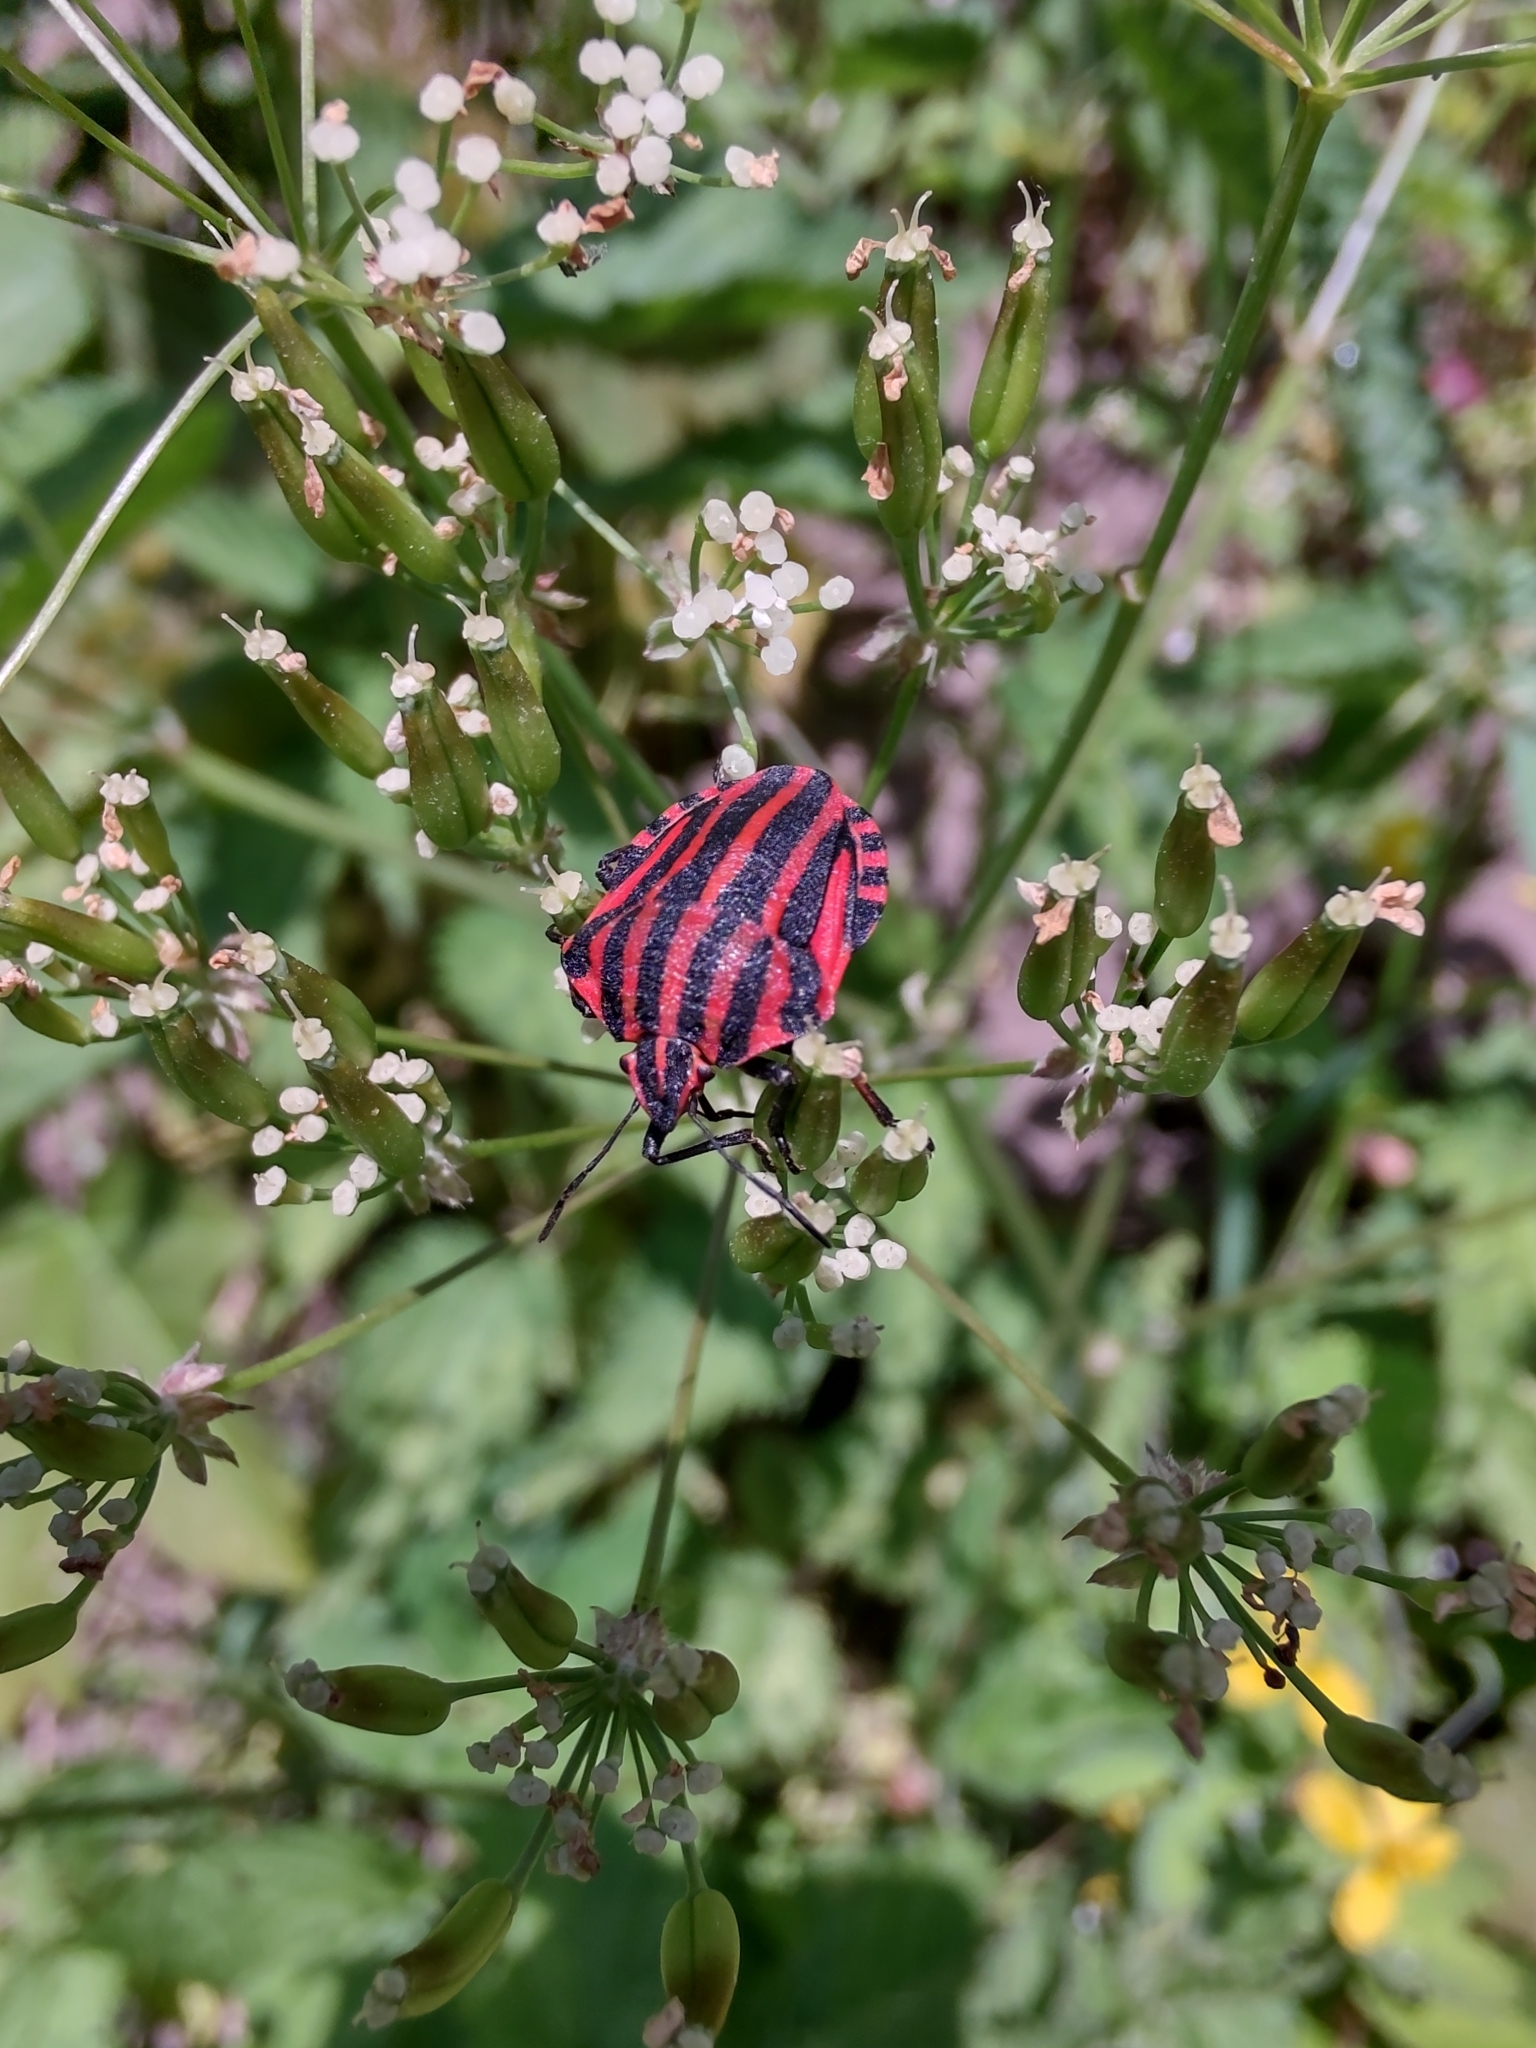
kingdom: Animalia
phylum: Arthropoda
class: Insecta
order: Hemiptera
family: Pentatomidae
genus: Graphosoma
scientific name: Graphosoma italicum
